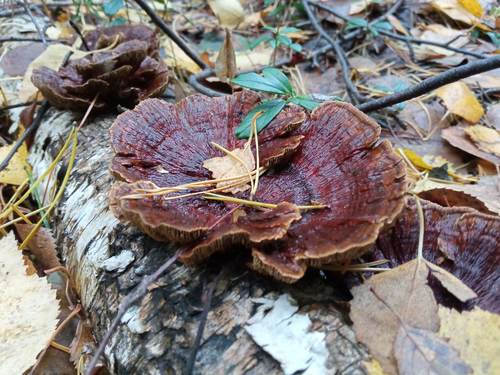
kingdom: Fungi
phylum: Basidiomycota
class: Agaricomycetes
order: Polyporales
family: Polyporaceae
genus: Daedaleopsis
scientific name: Daedaleopsis tricolor
